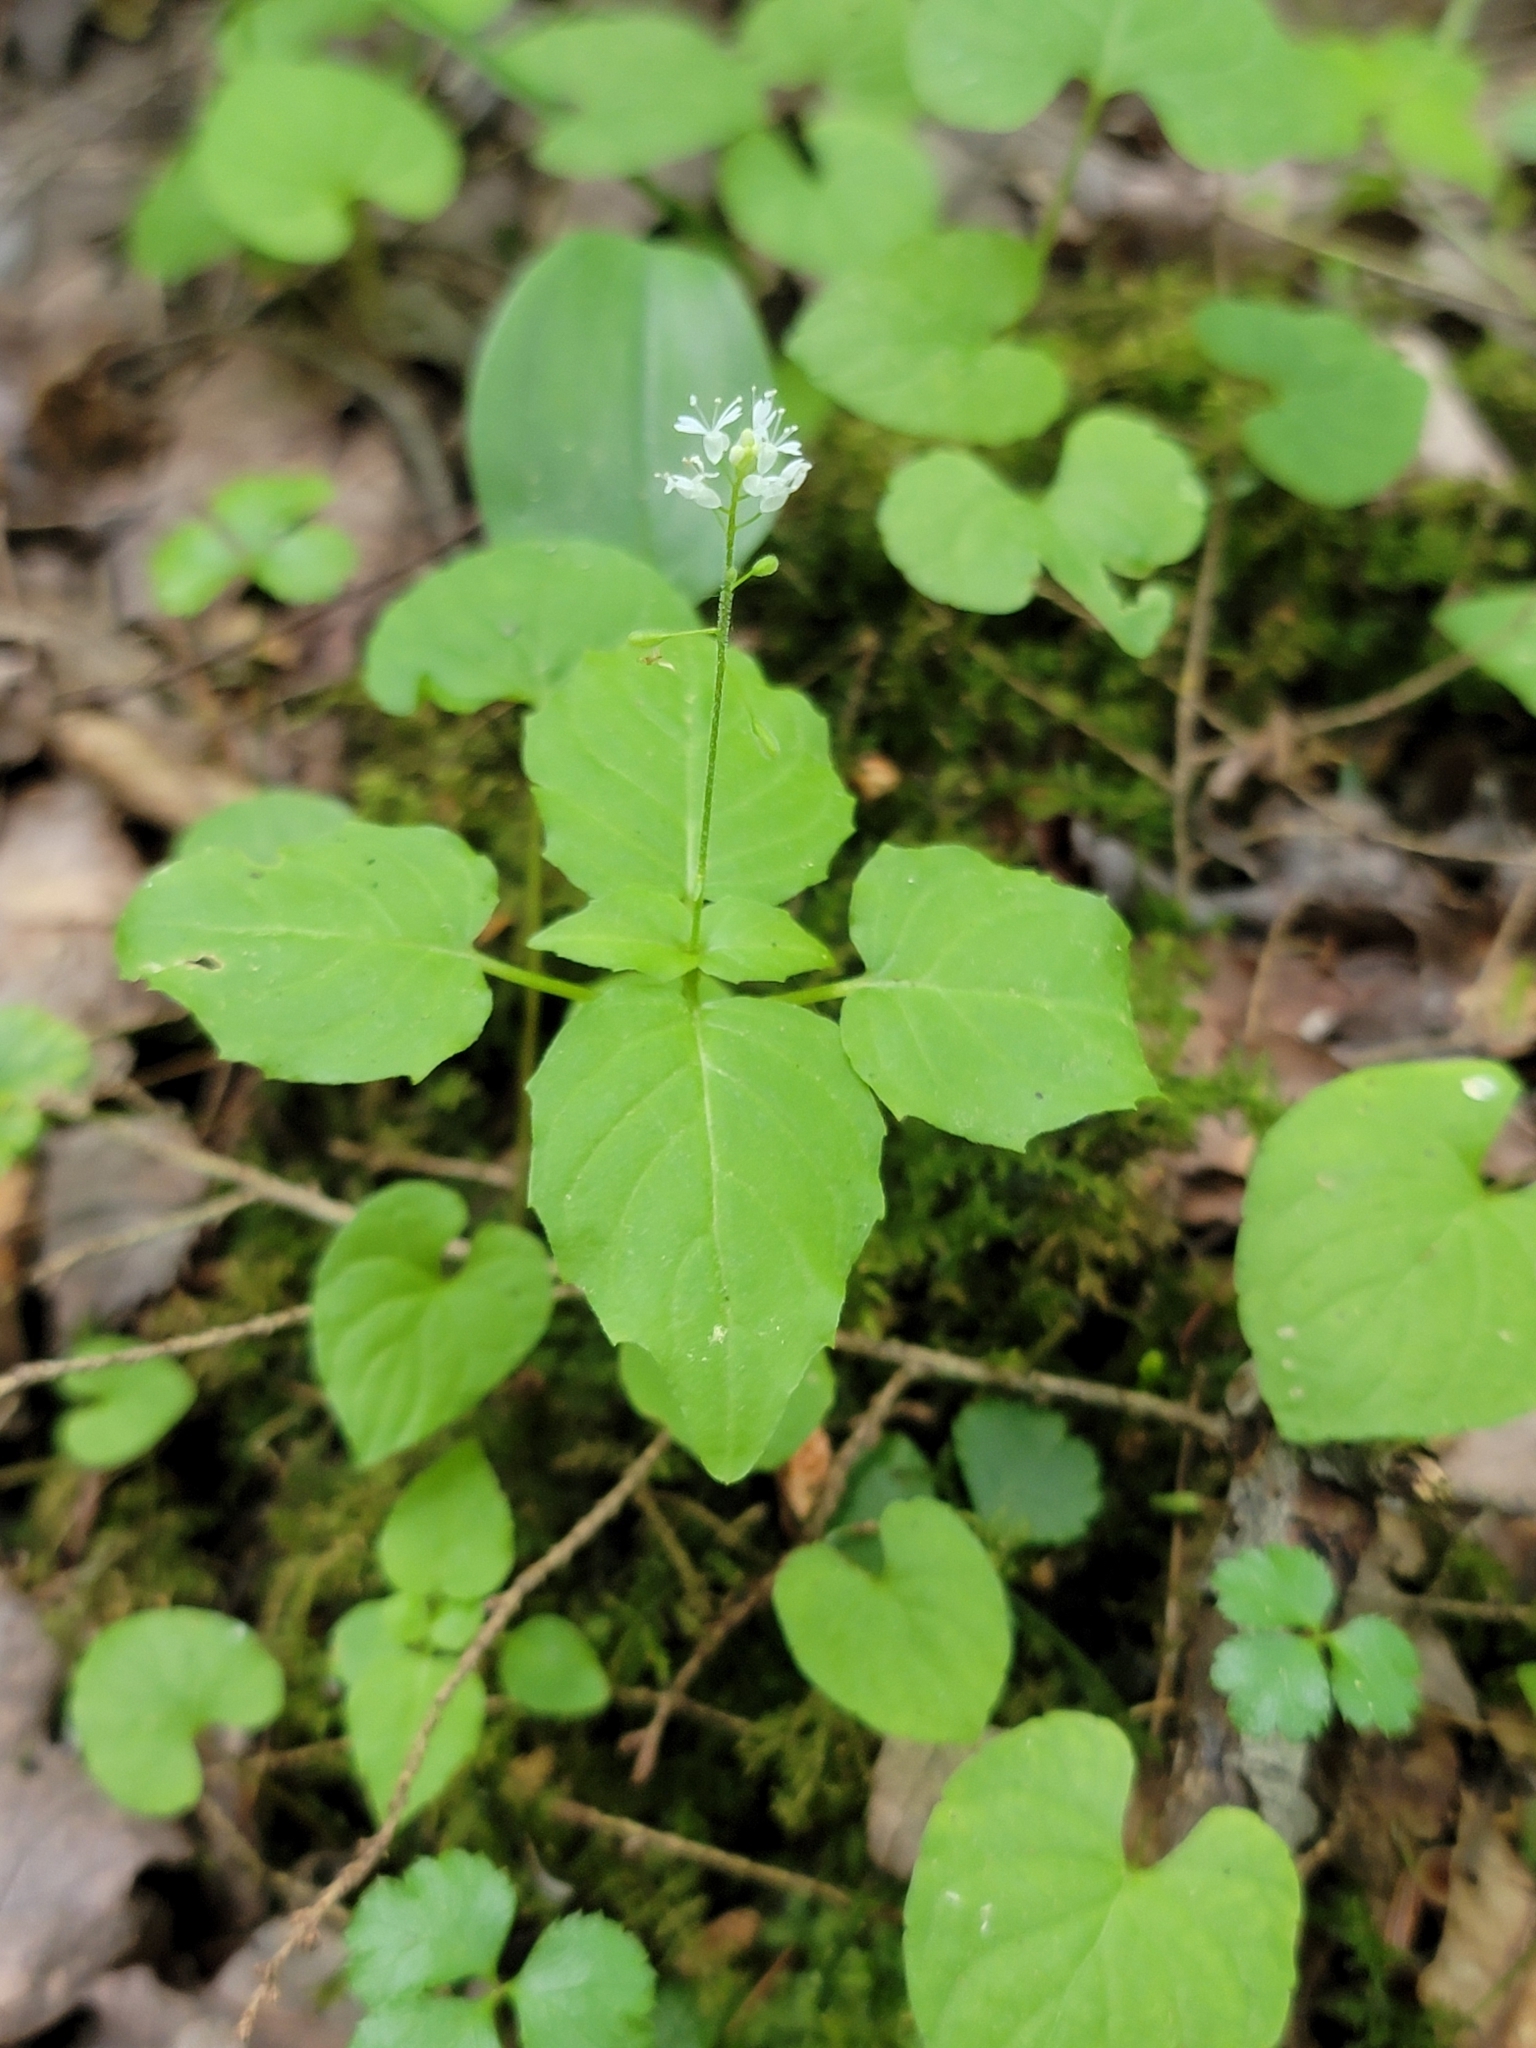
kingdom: Plantae
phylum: Tracheophyta
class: Magnoliopsida
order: Myrtales
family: Onagraceae
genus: Circaea
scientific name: Circaea alpina
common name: Alpine enchanter's-nightshade
